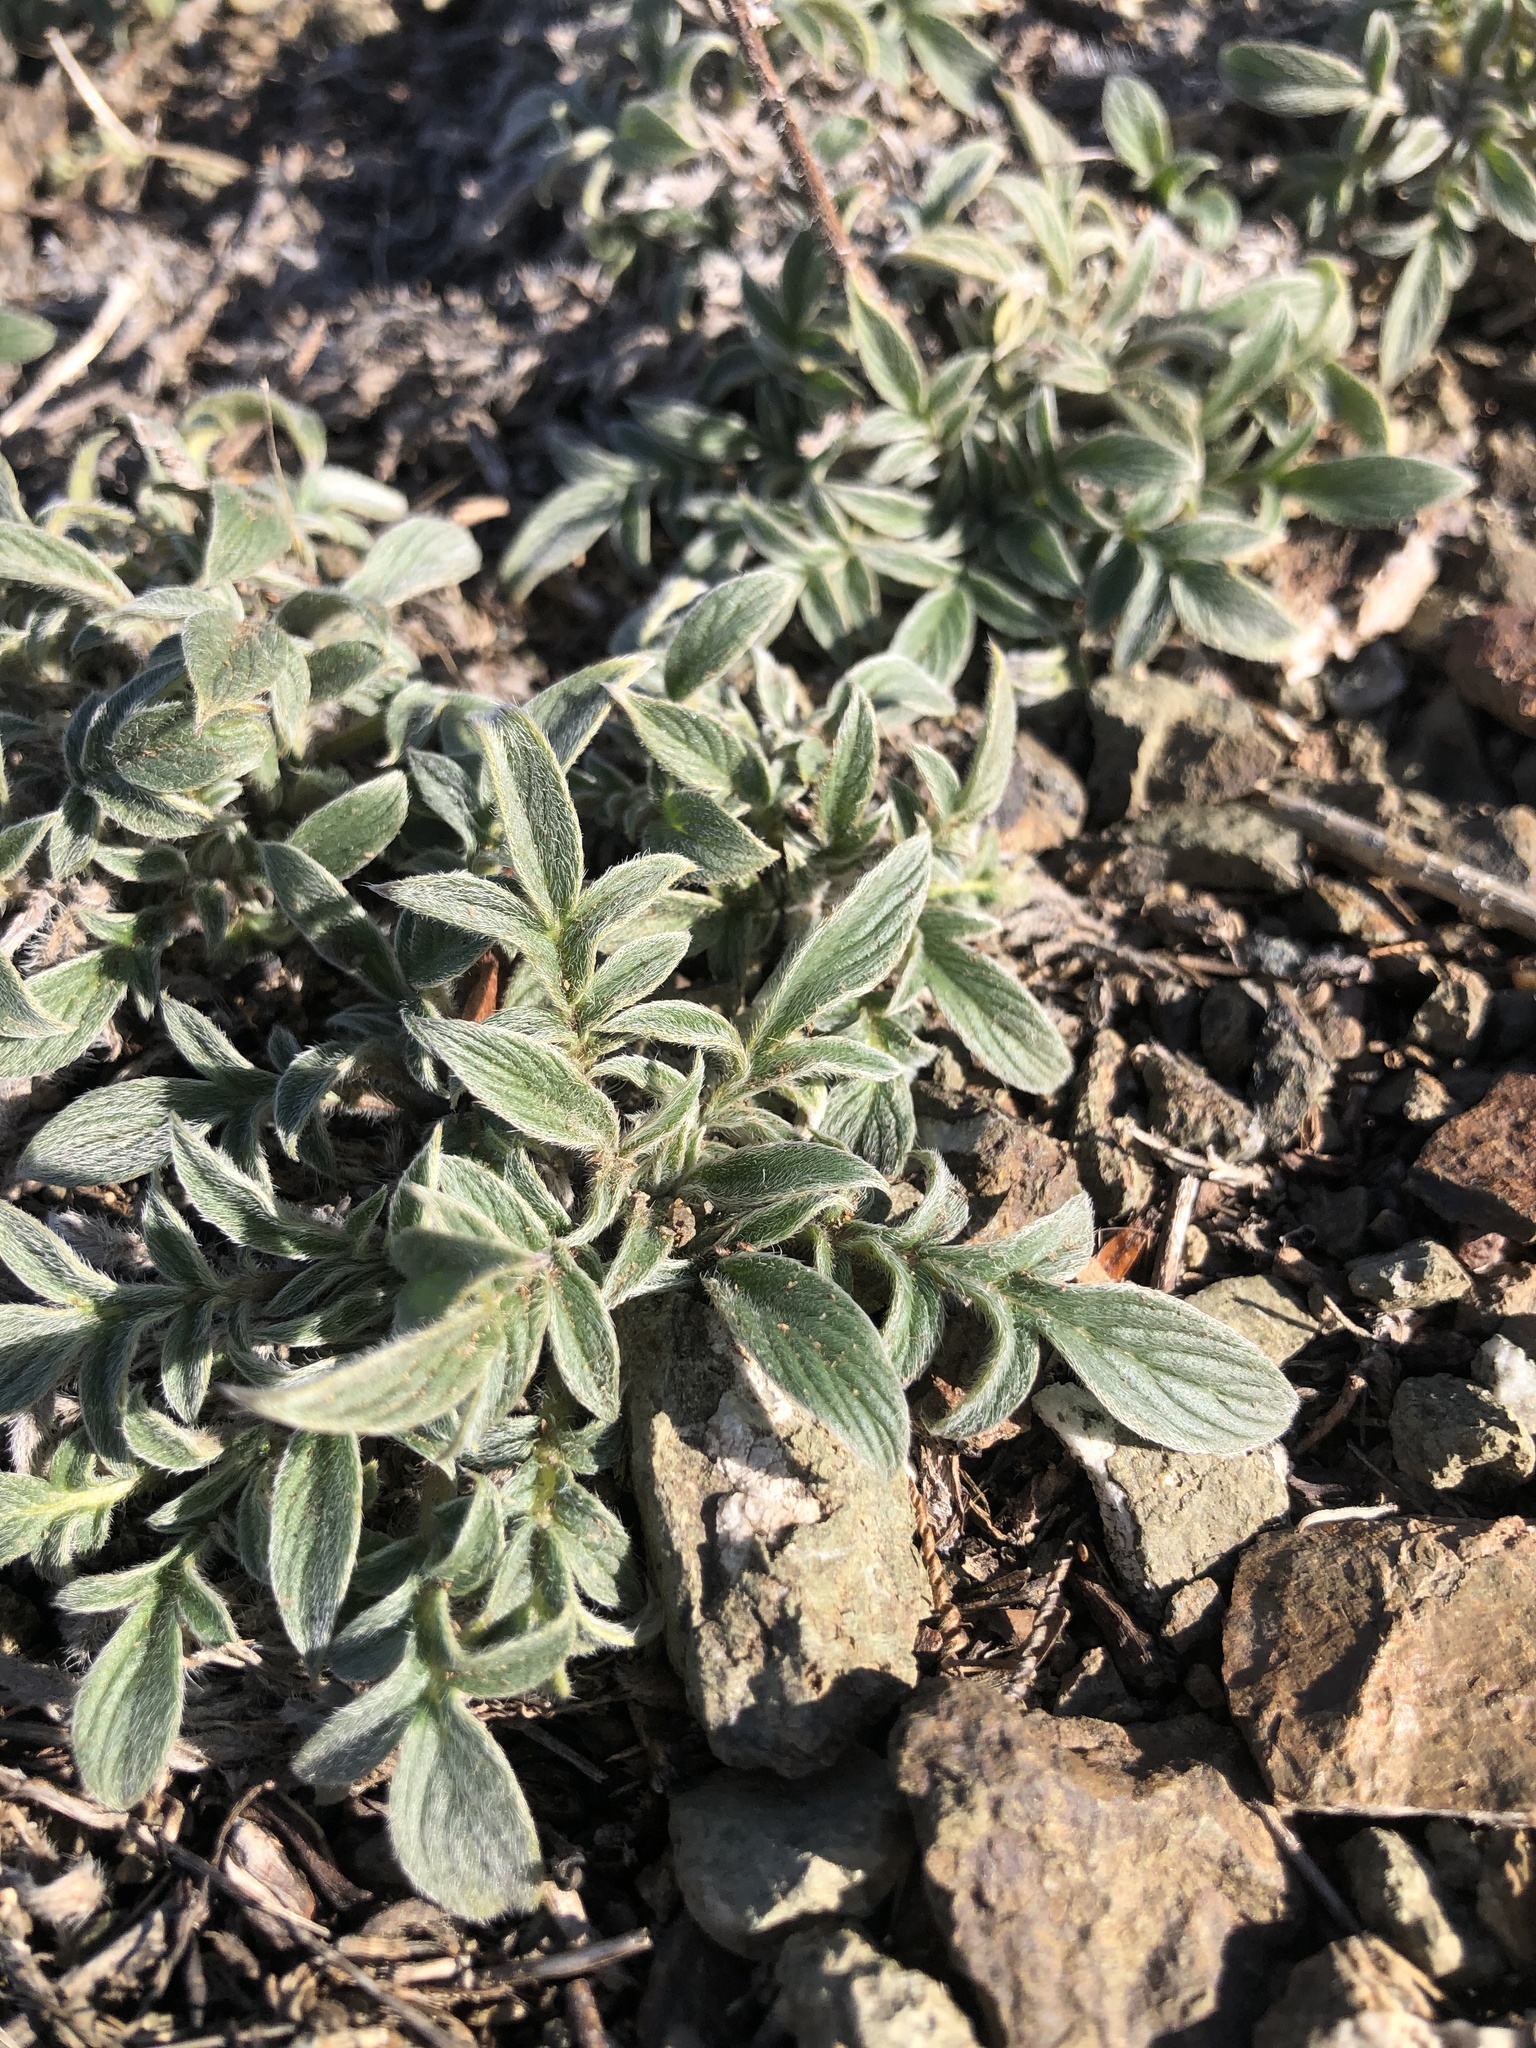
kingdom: Plantae
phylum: Tracheophyta
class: Magnoliopsida
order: Boraginales
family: Hydrophyllaceae
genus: Phacelia
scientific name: Phacelia imbricata
